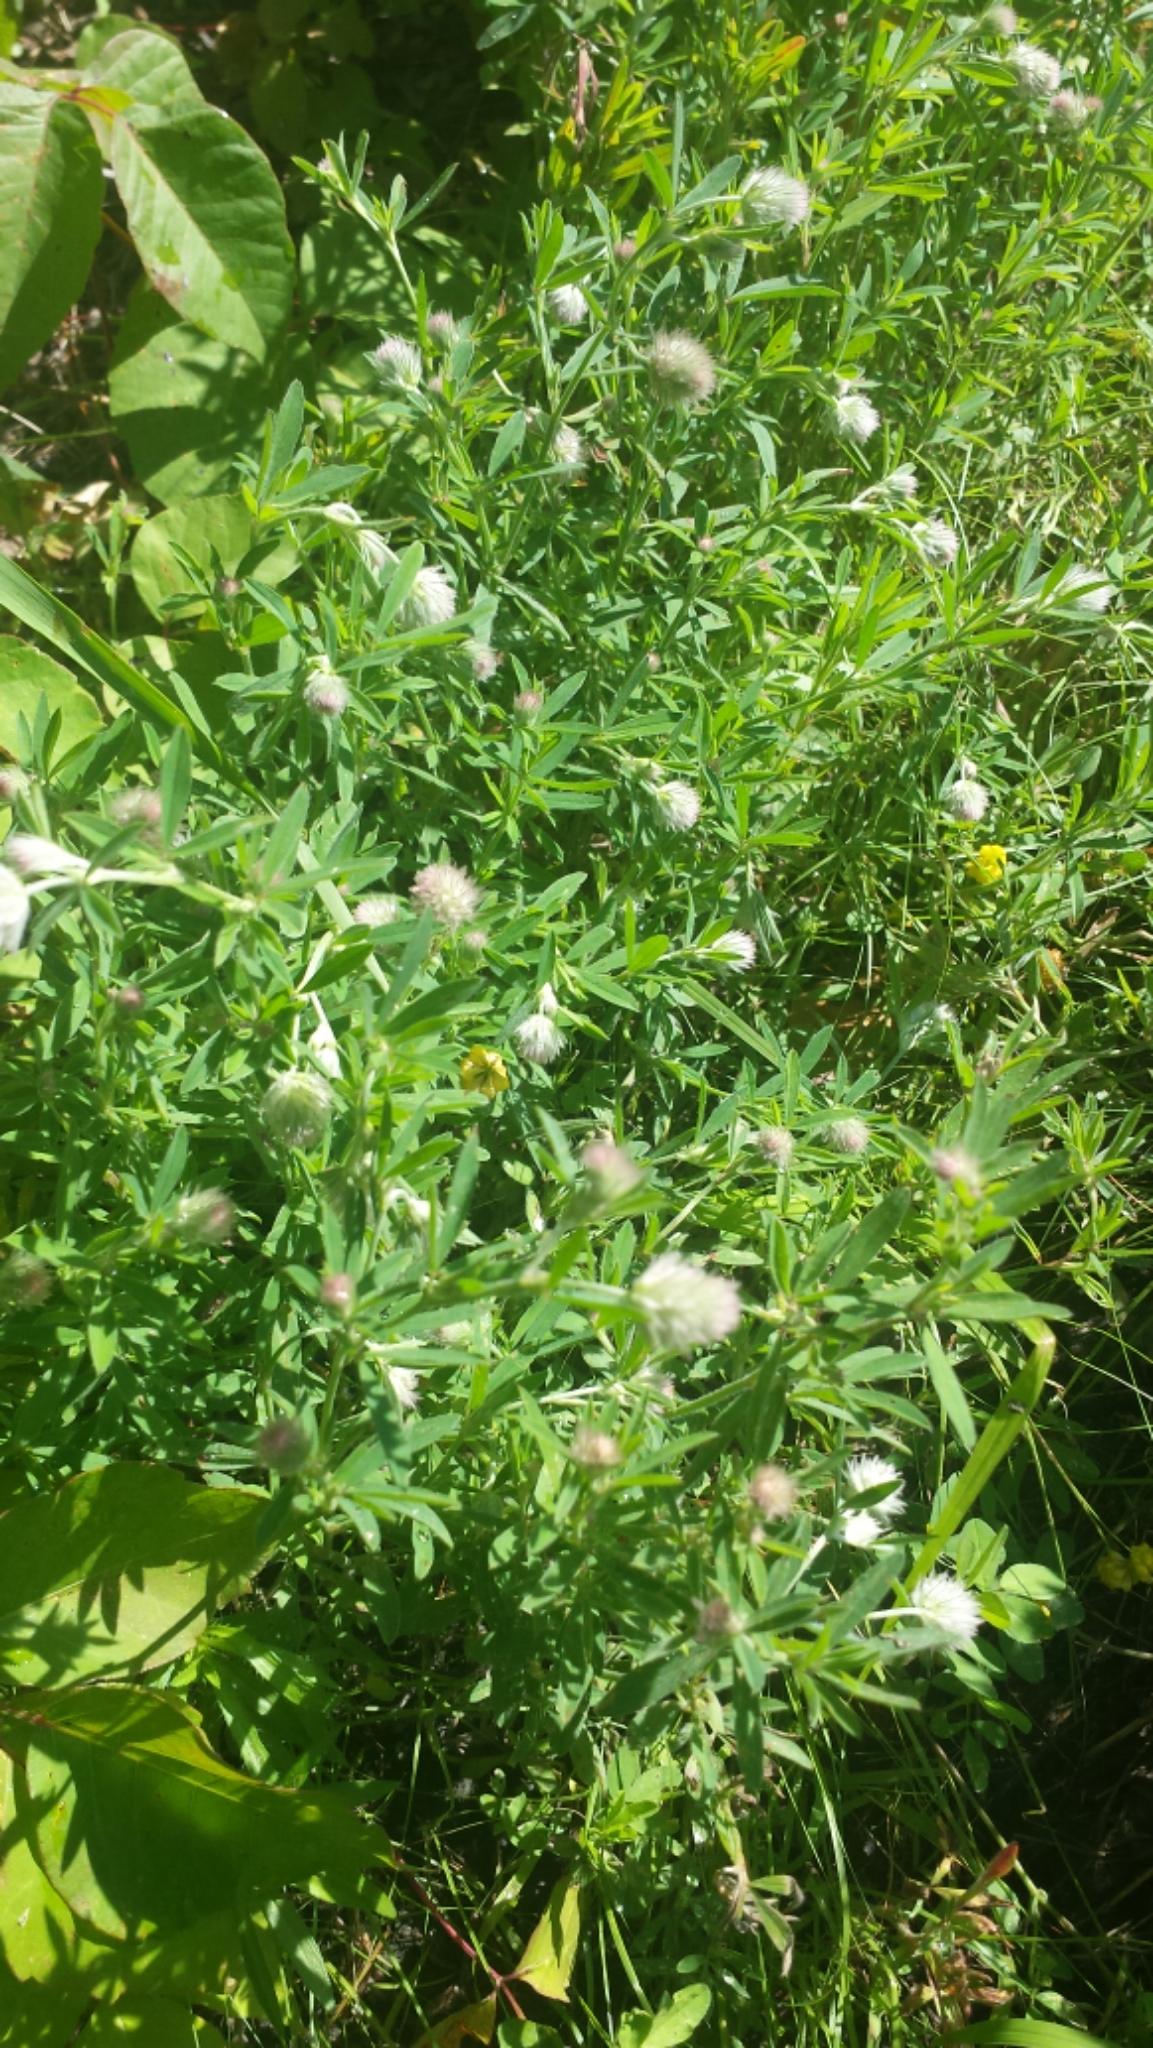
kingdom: Plantae
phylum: Tracheophyta
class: Magnoliopsida
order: Fabales
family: Fabaceae
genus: Trifolium
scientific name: Trifolium arvense
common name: Hare's-foot clover
